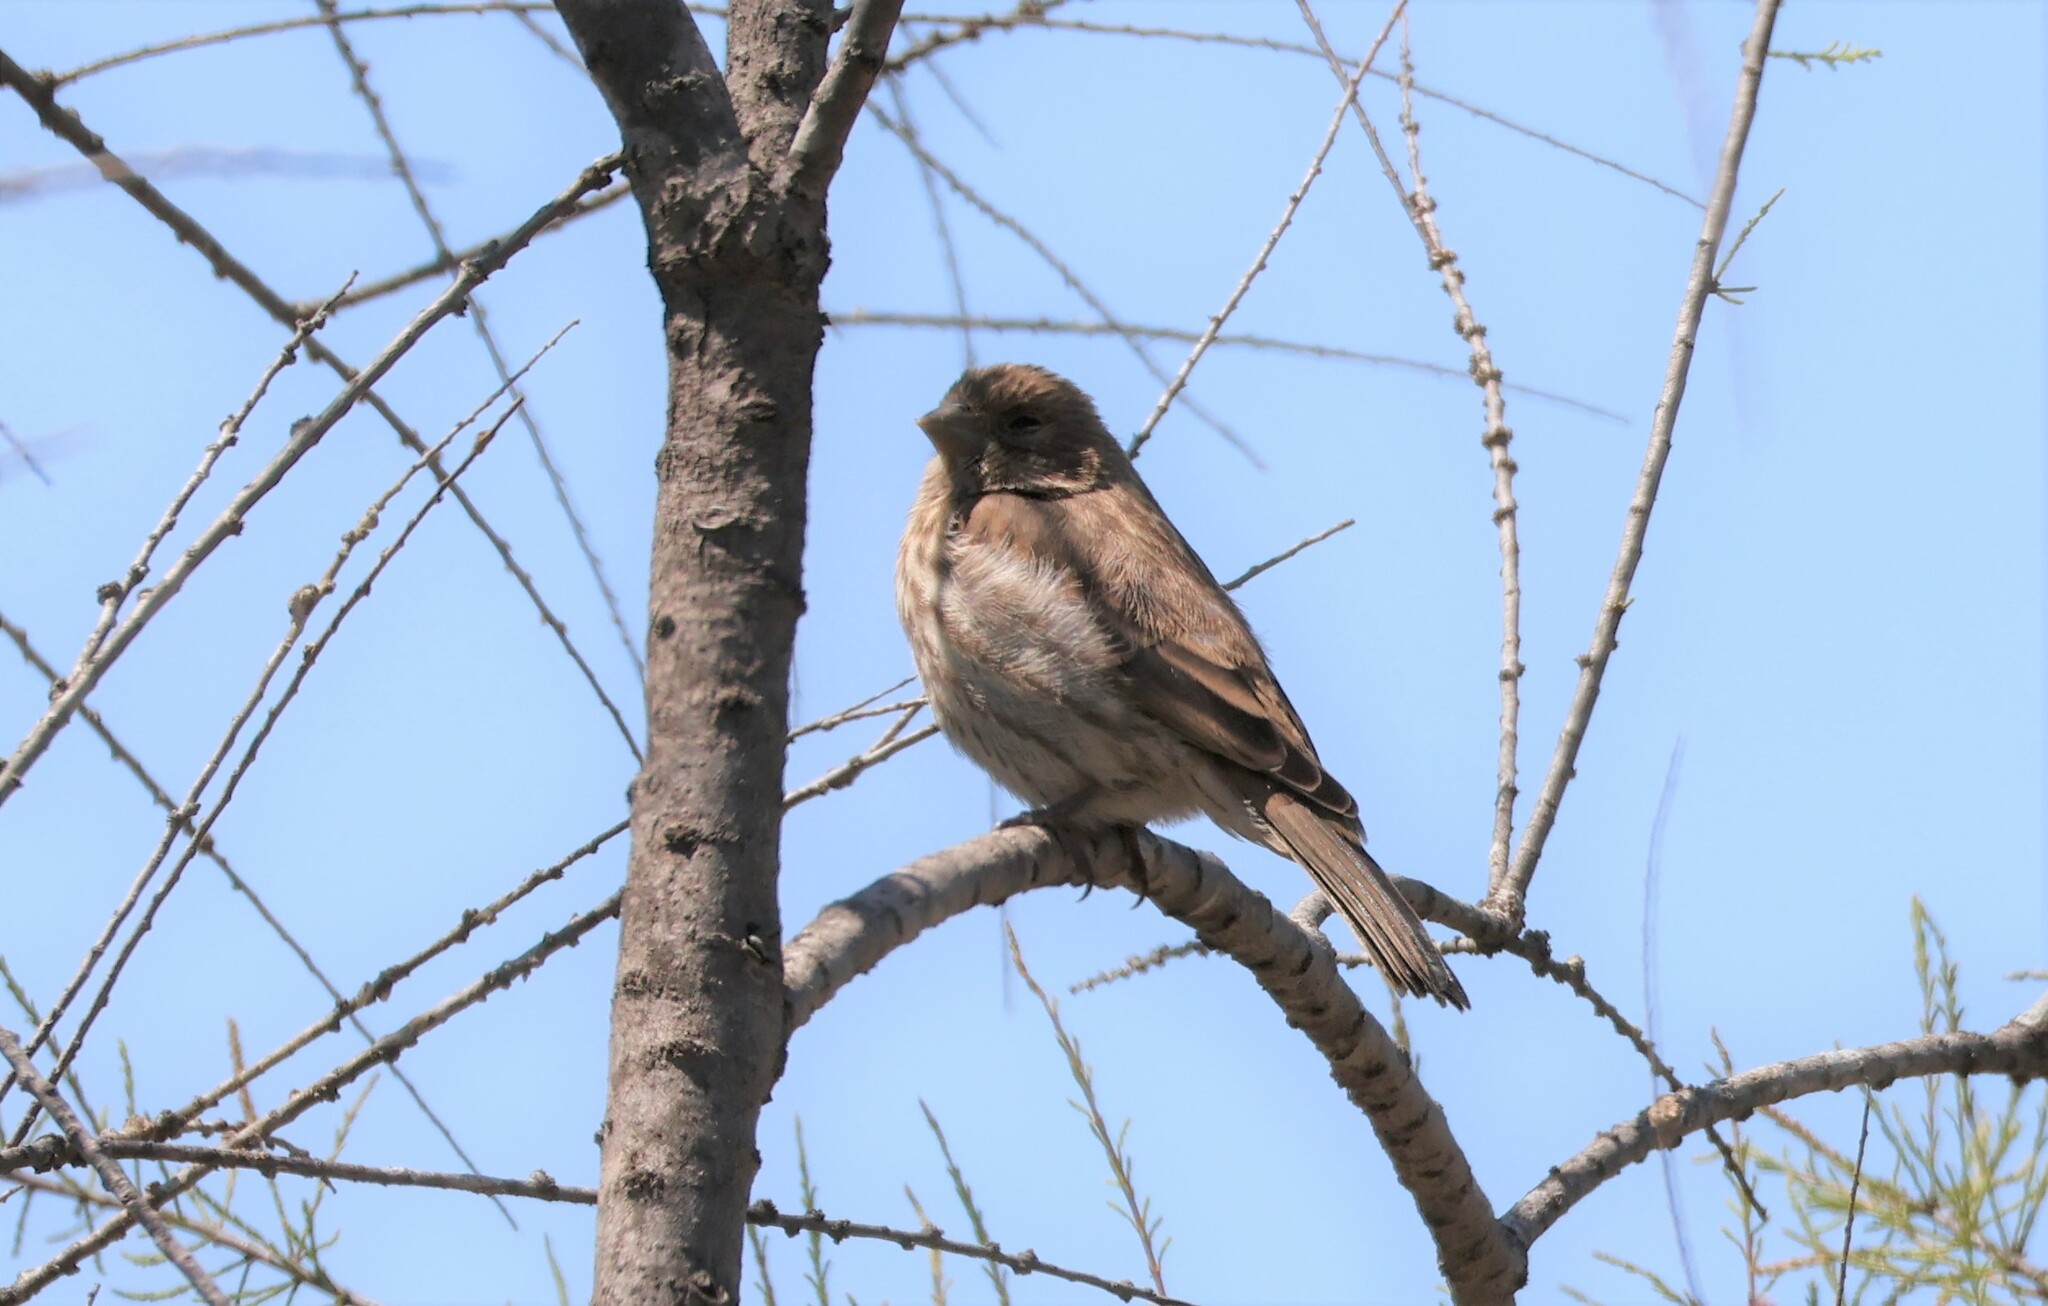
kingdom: Animalia
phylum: Chordata
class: Aves
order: Passeriformes
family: Fringillidae
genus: Haemorhous
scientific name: Haemorhous mexicanus
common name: House finch
